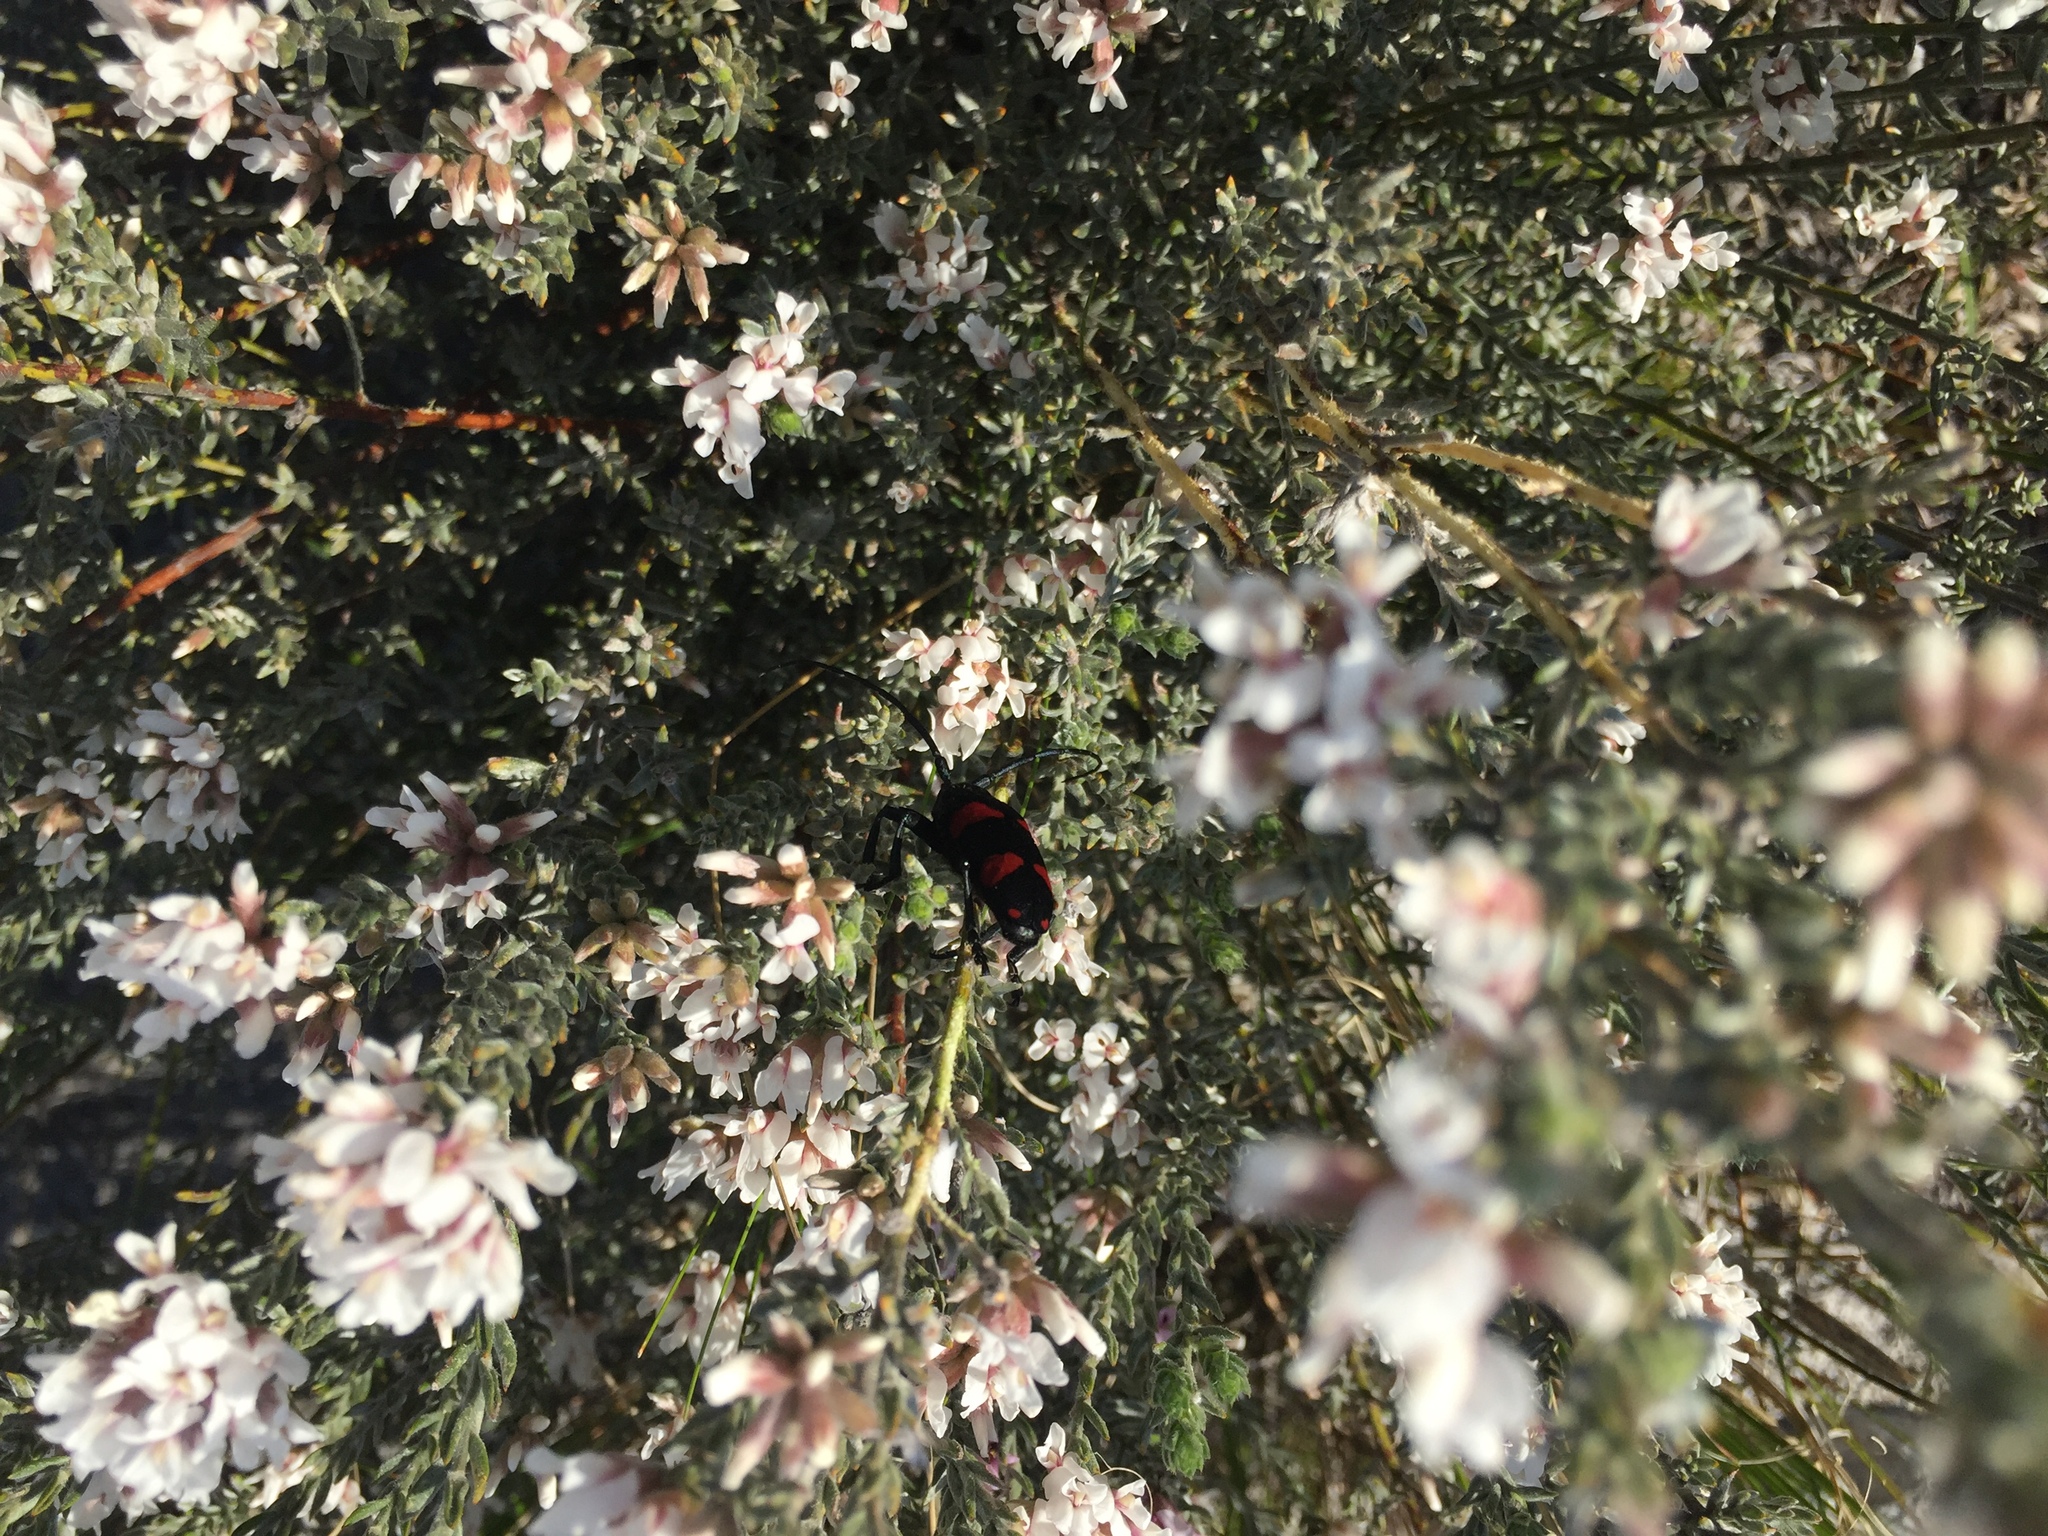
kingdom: Plantae
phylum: Tracheophyta
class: Magnoliopsida
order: Fabales
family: Fabaceae
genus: Amphithalea
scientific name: Amphithalea ericifolia
